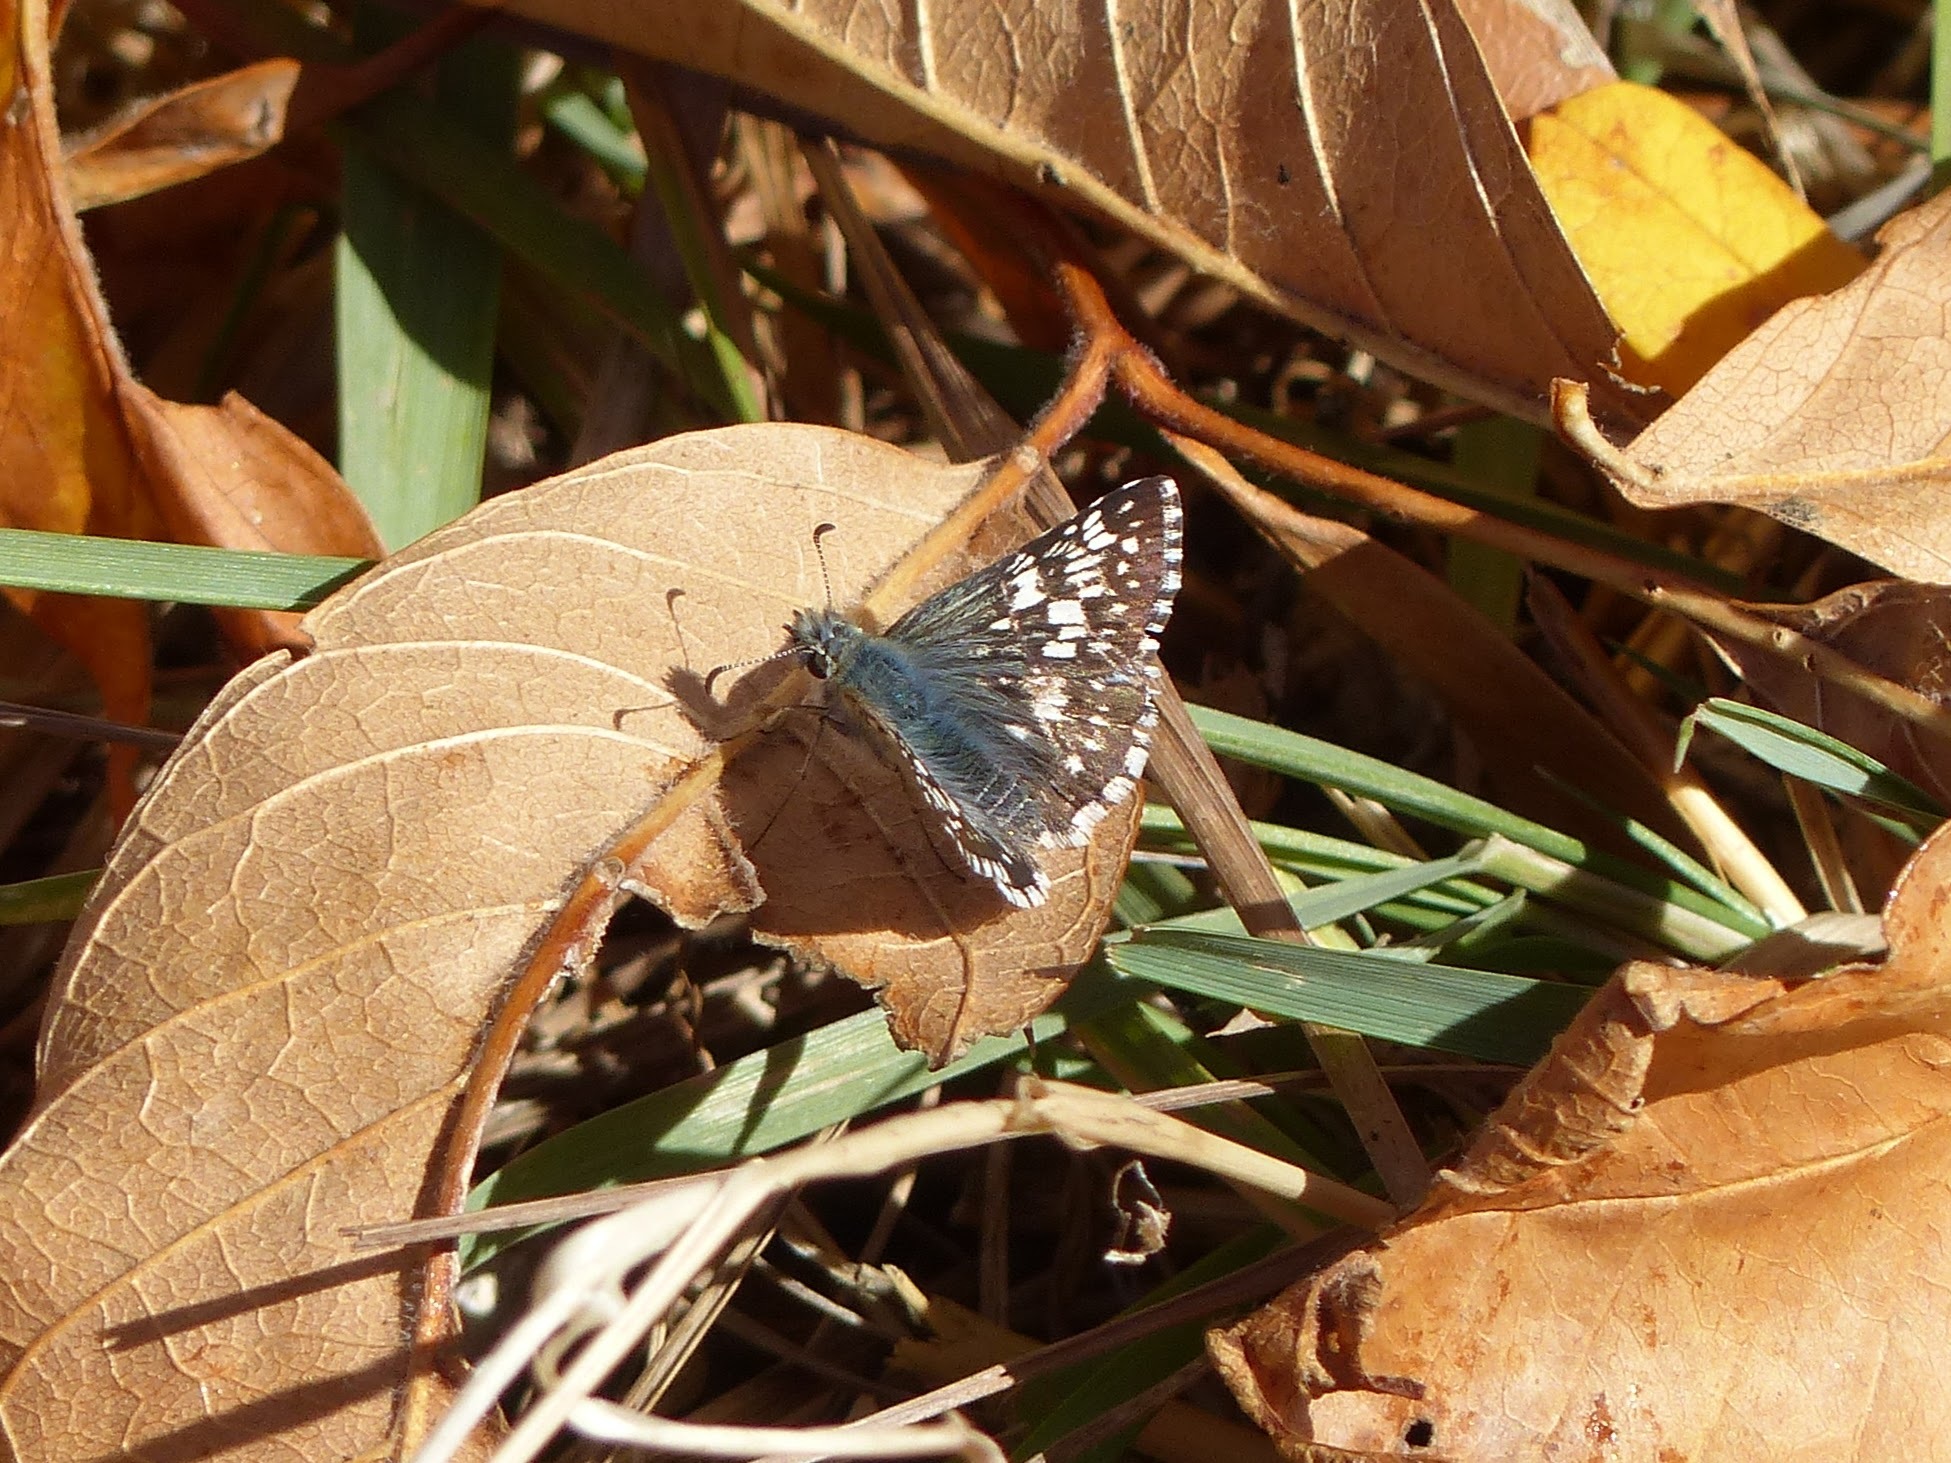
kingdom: Animalia
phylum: Arthropoda
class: Insecta
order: Lepidoptera
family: Hesperiidae
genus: Burnsius
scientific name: Burnsius communis
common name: Common checkered-skipper
